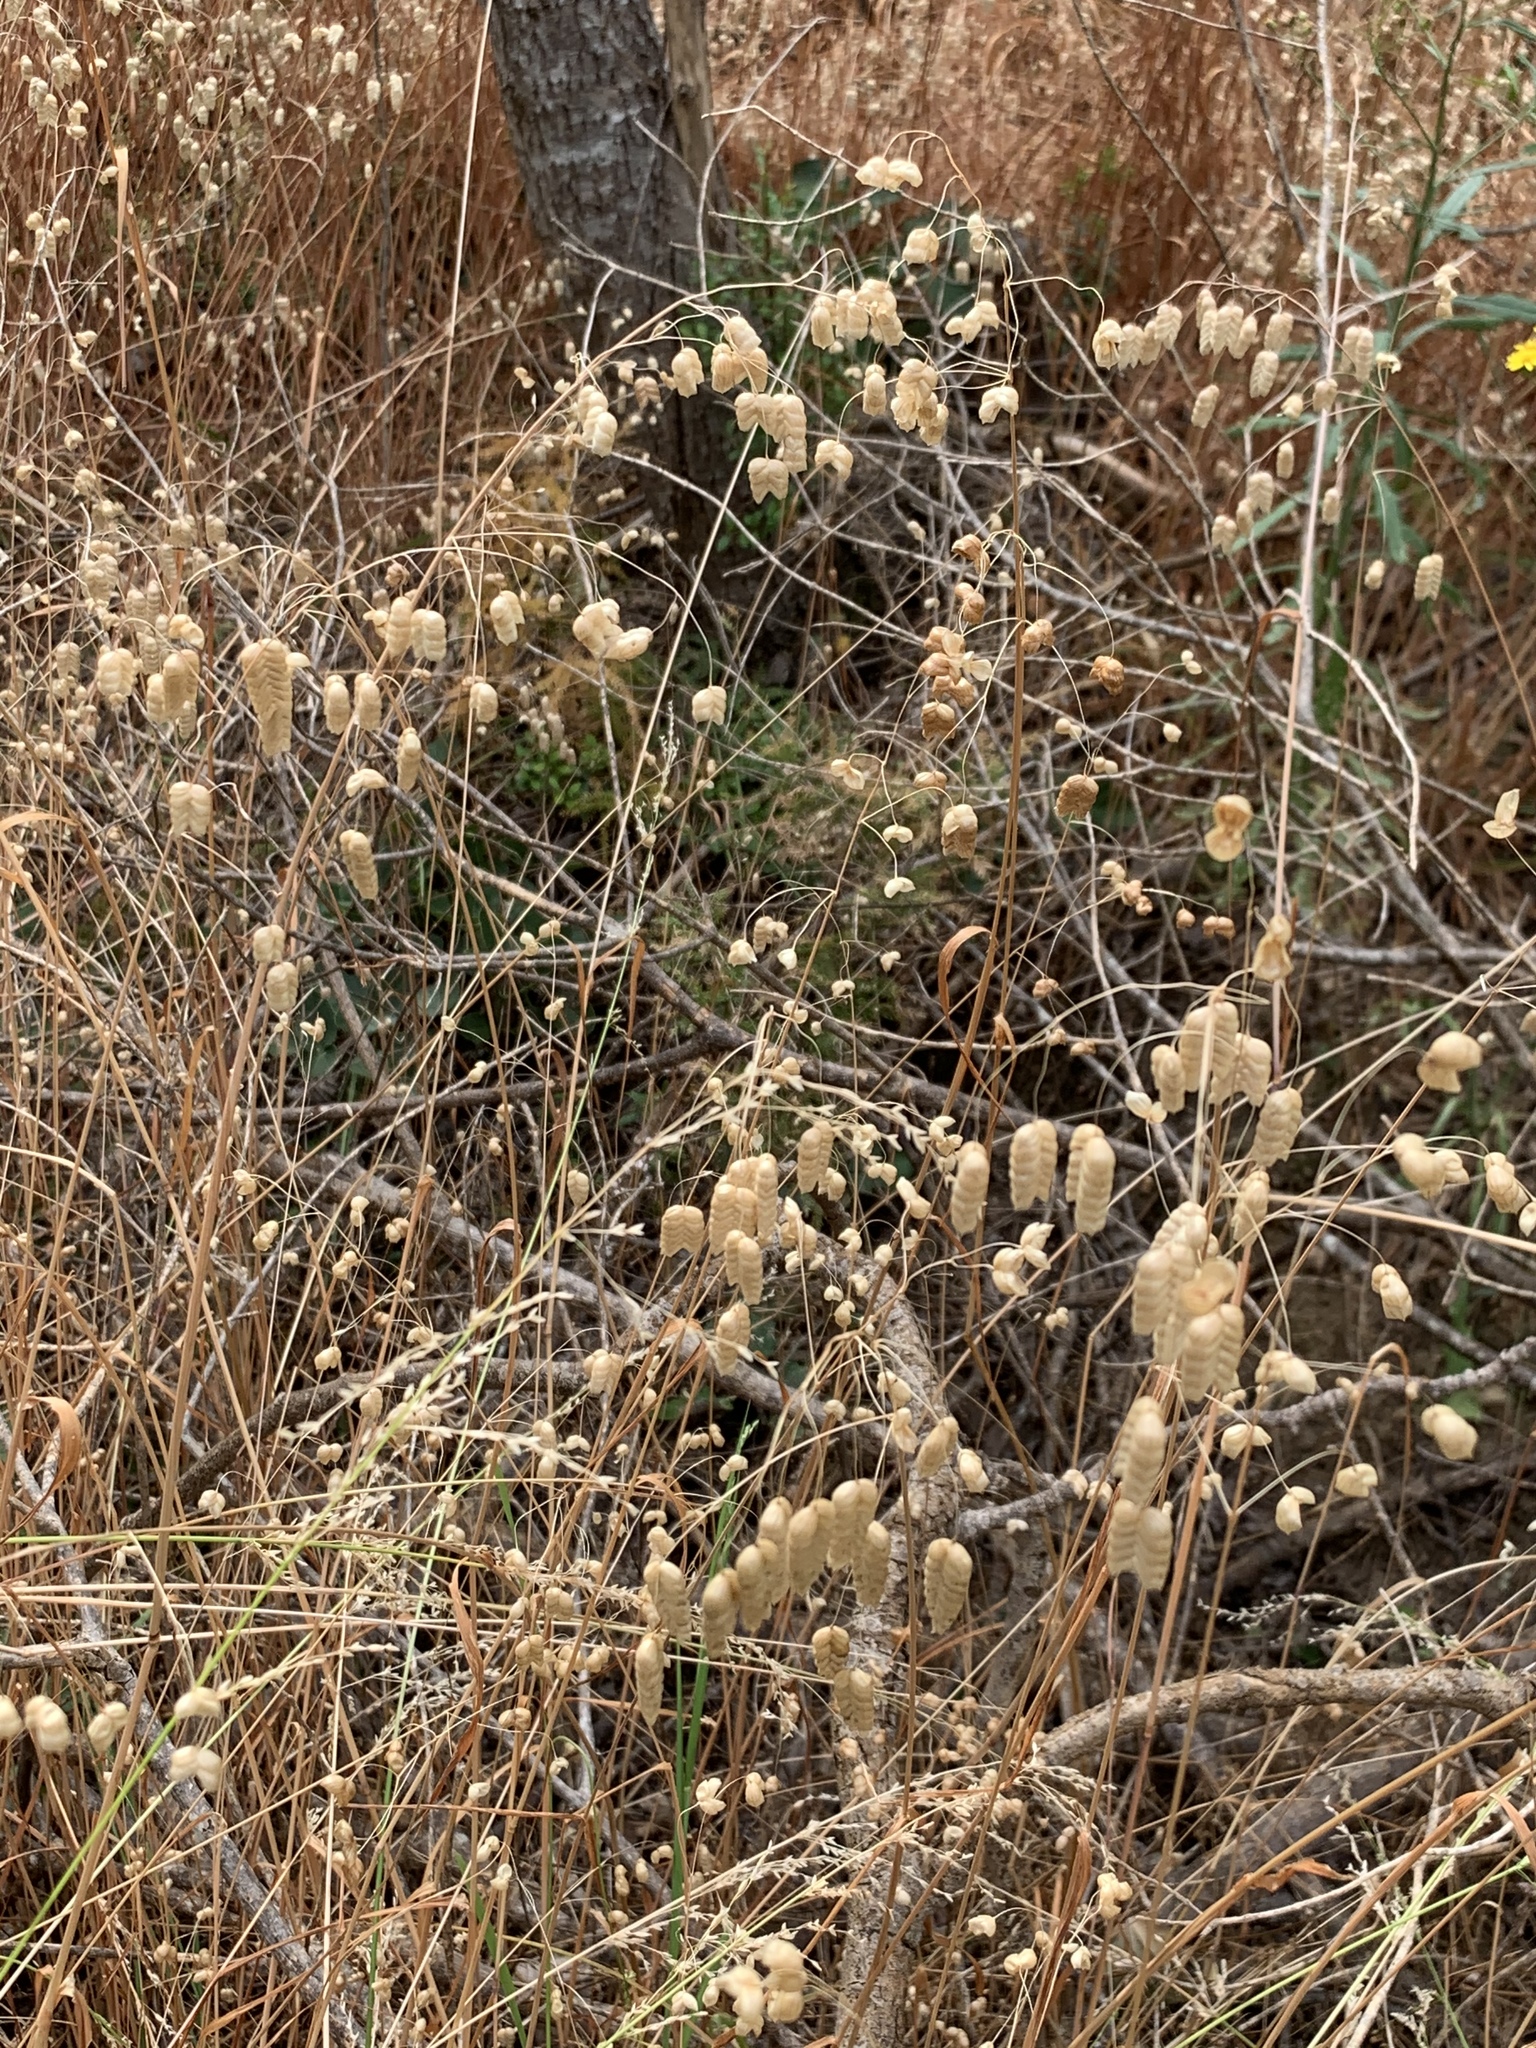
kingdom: Plantae
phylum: Tracheophyta
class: Liliopsida
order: Poales
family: Poaceae
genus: Briza
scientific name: Briza maxima
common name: Big quakinggrass
